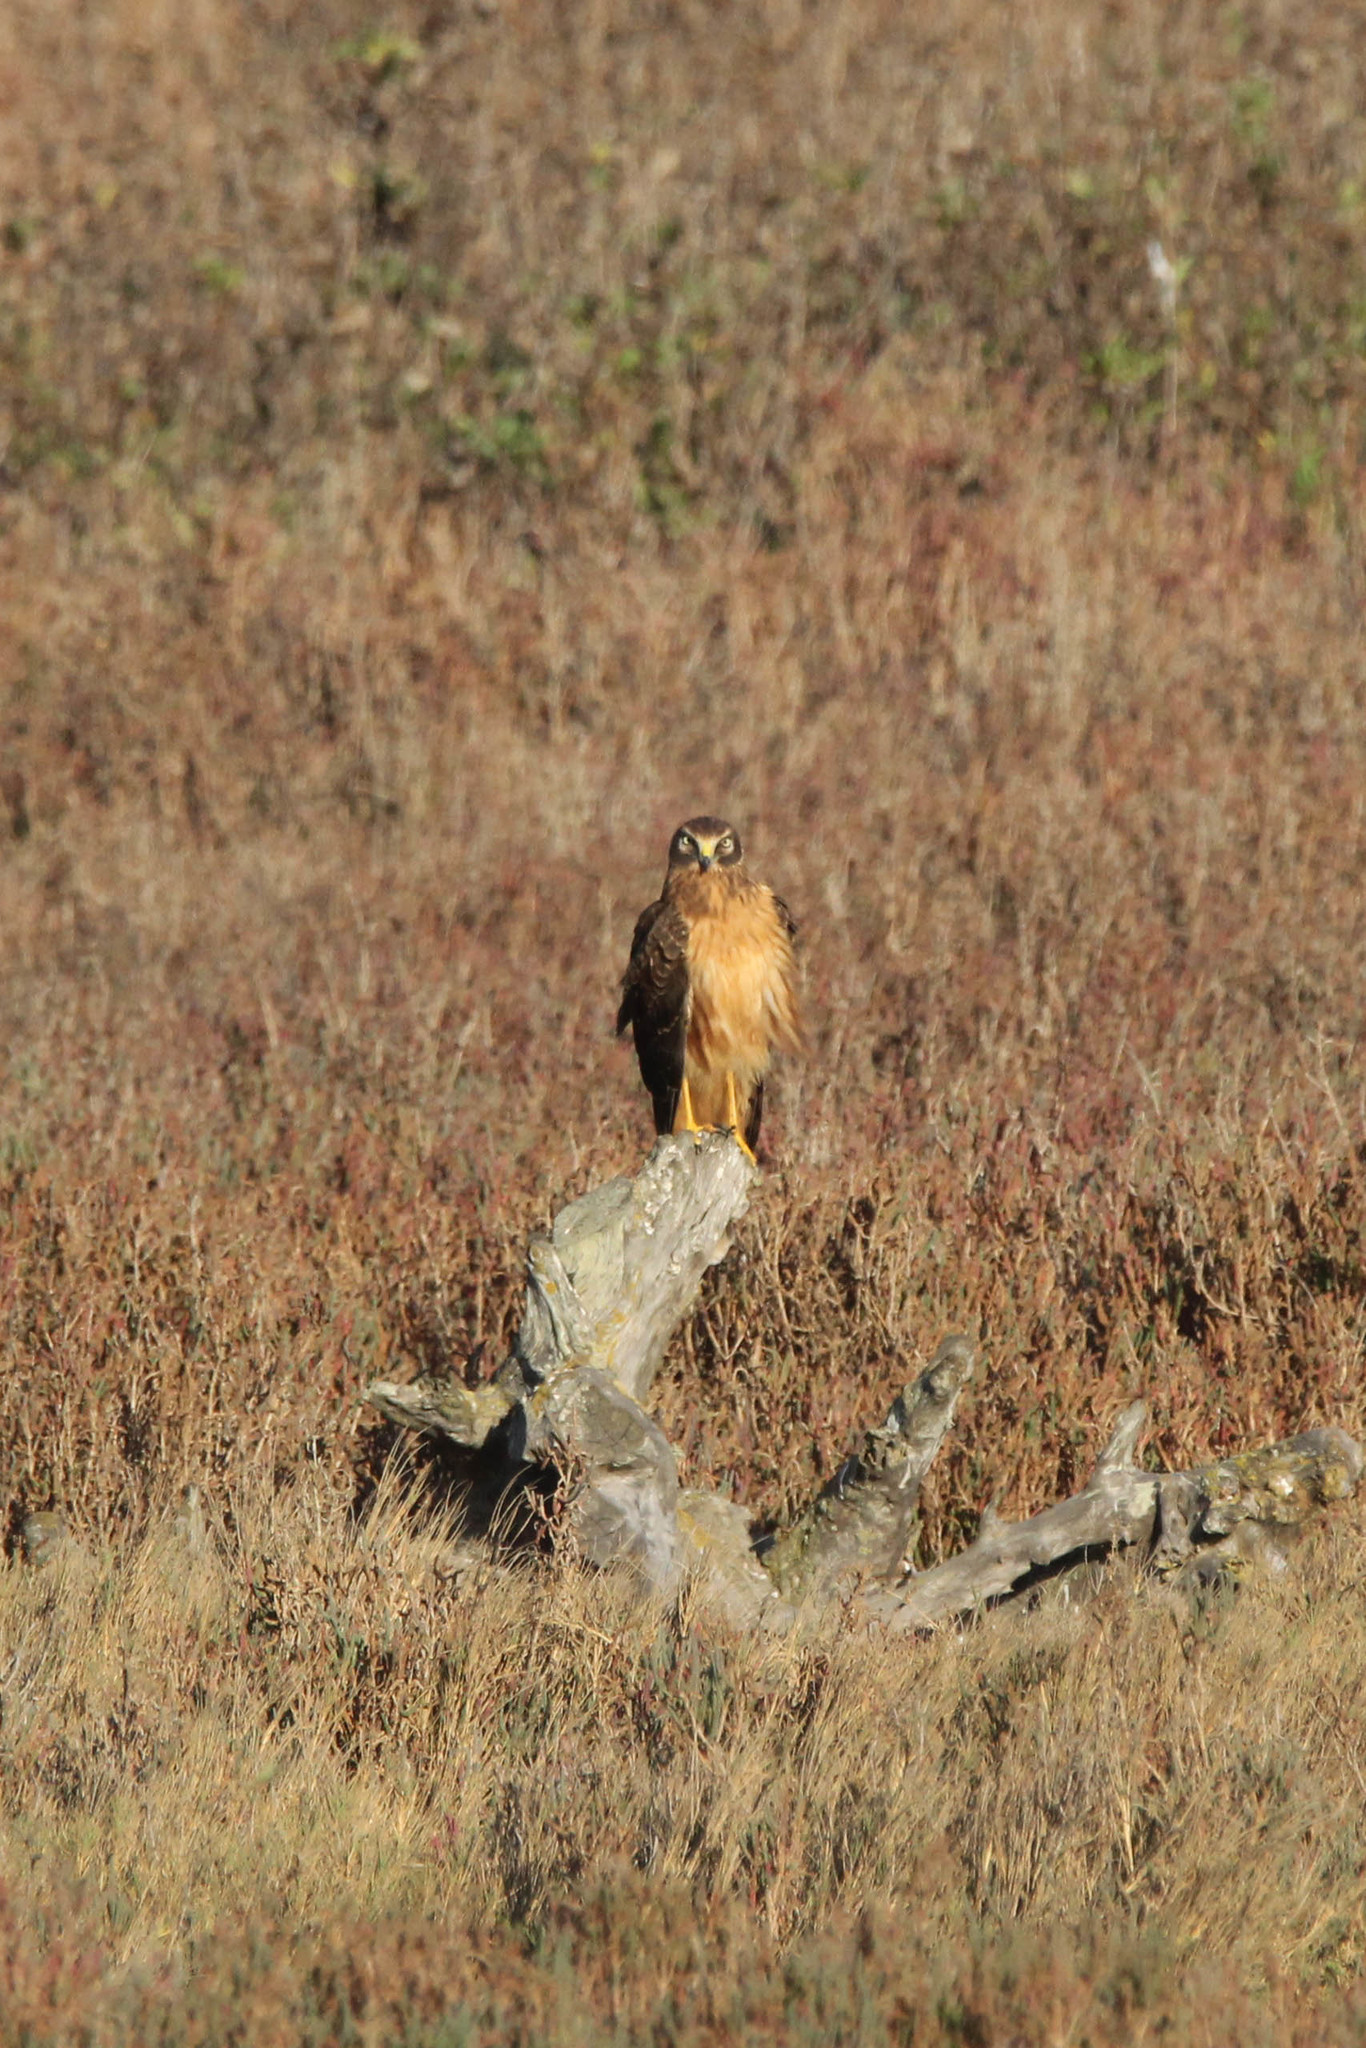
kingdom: Animalia
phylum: Chordata
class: Aves
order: Accipitriformes
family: Accipitridae
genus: Circus
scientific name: Circus cyaneus
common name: Hen harrier
